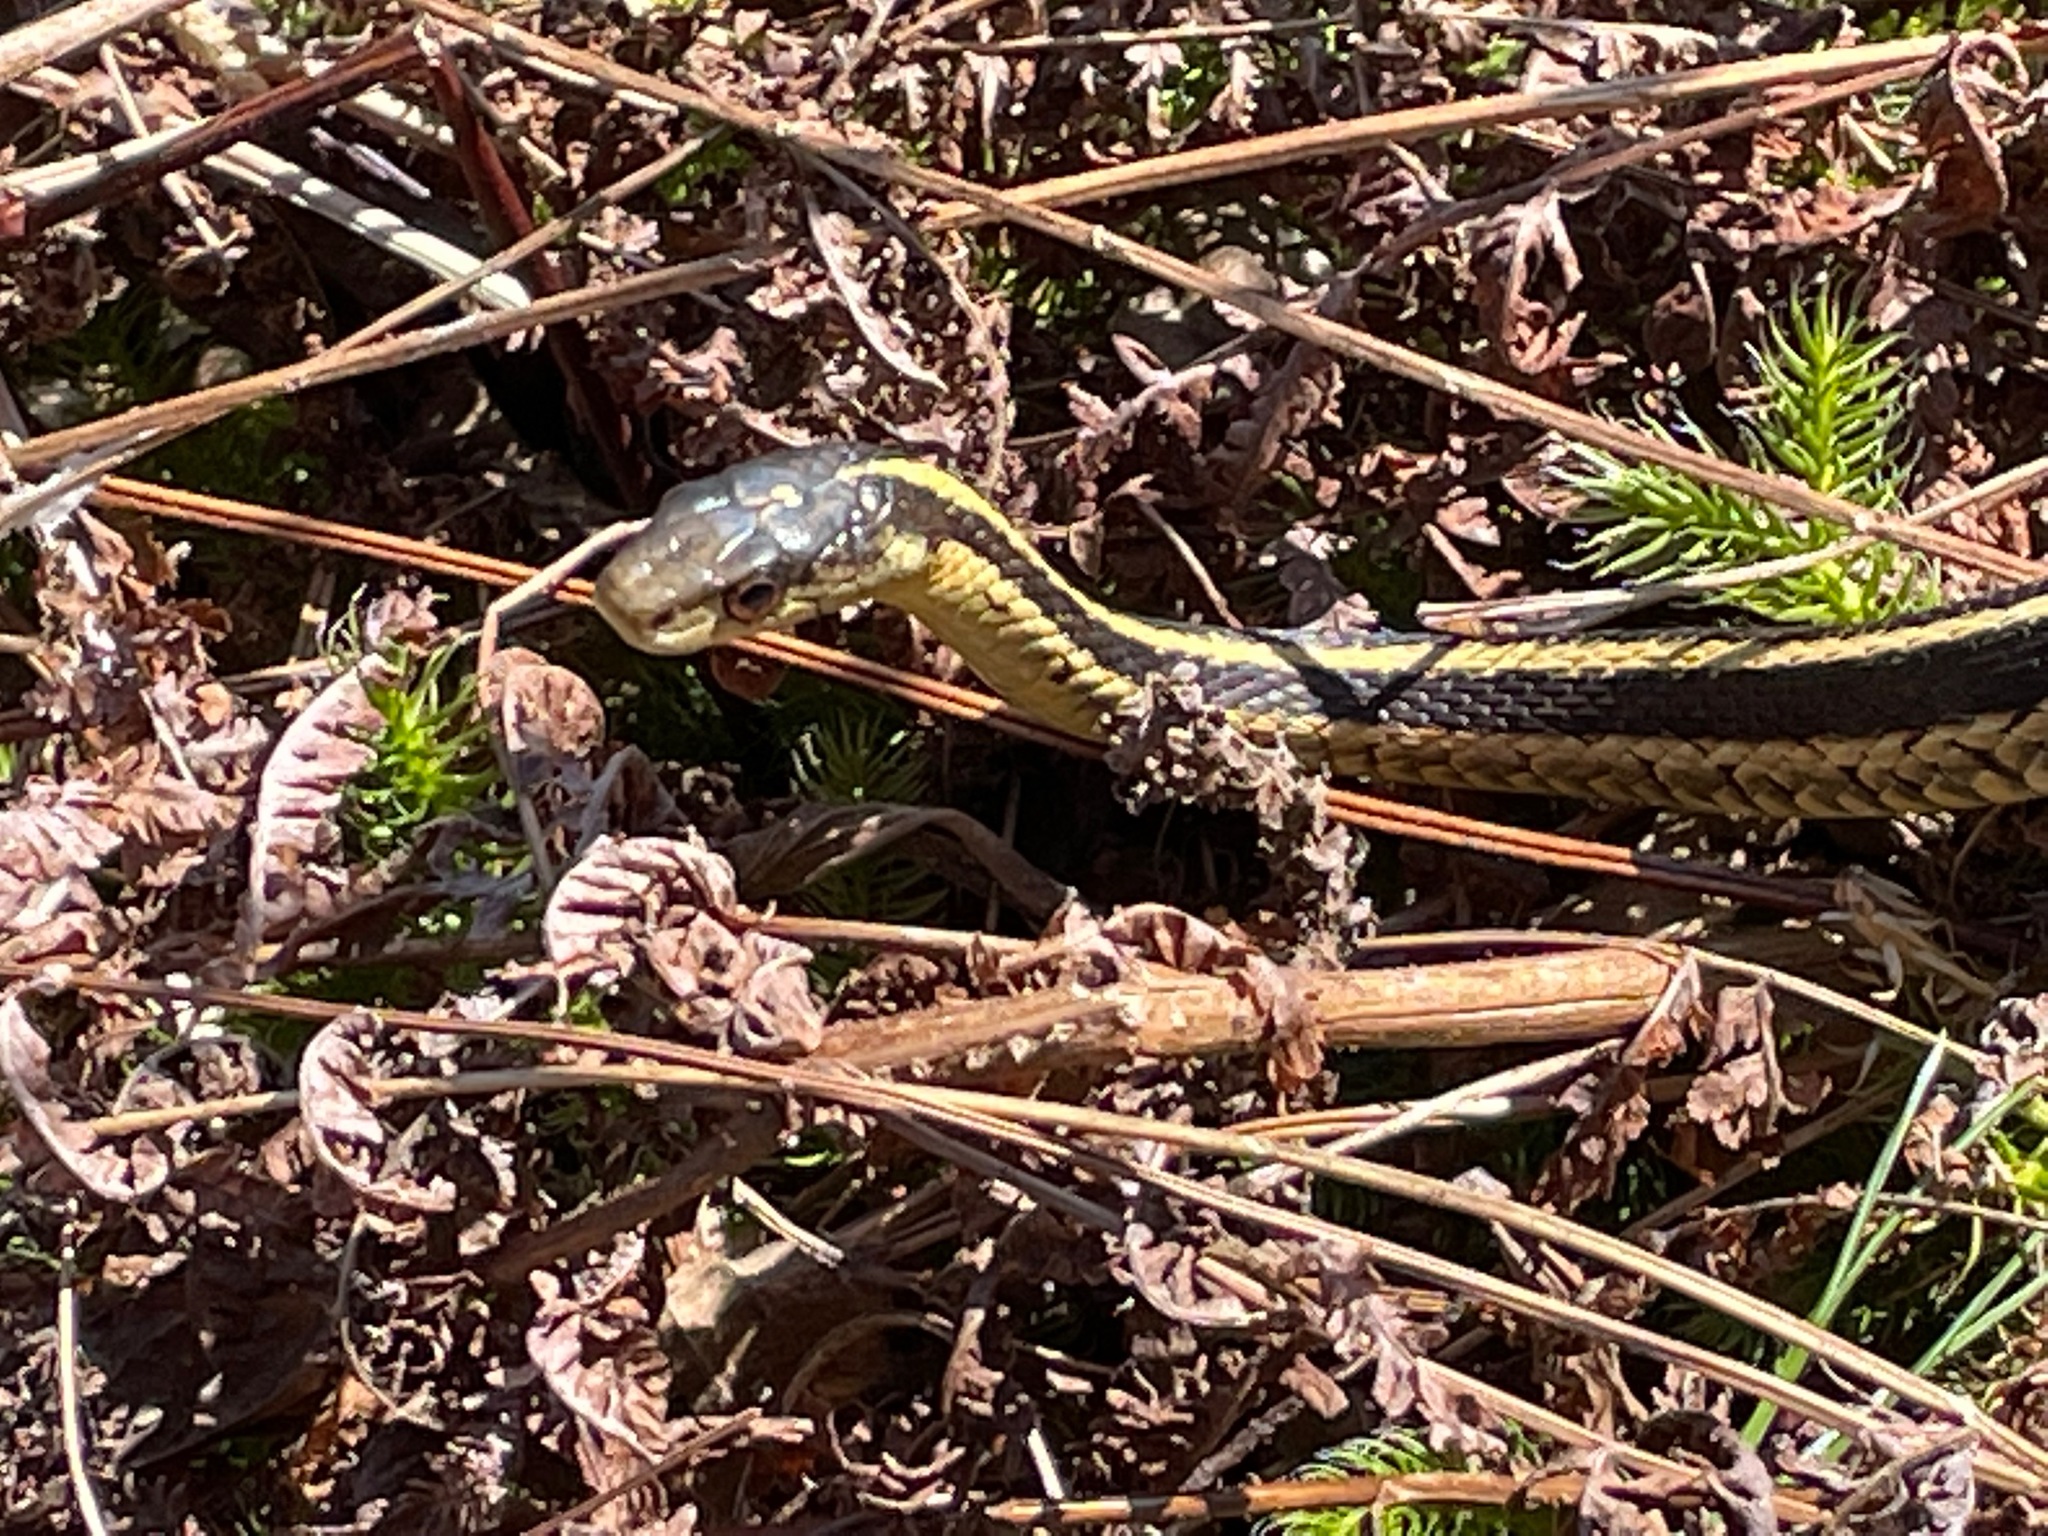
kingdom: Animalia
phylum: Chordata
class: Squamata
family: Colubridae
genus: Thamnophis
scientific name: Thamnophis sirtalis
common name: Common garter snake
